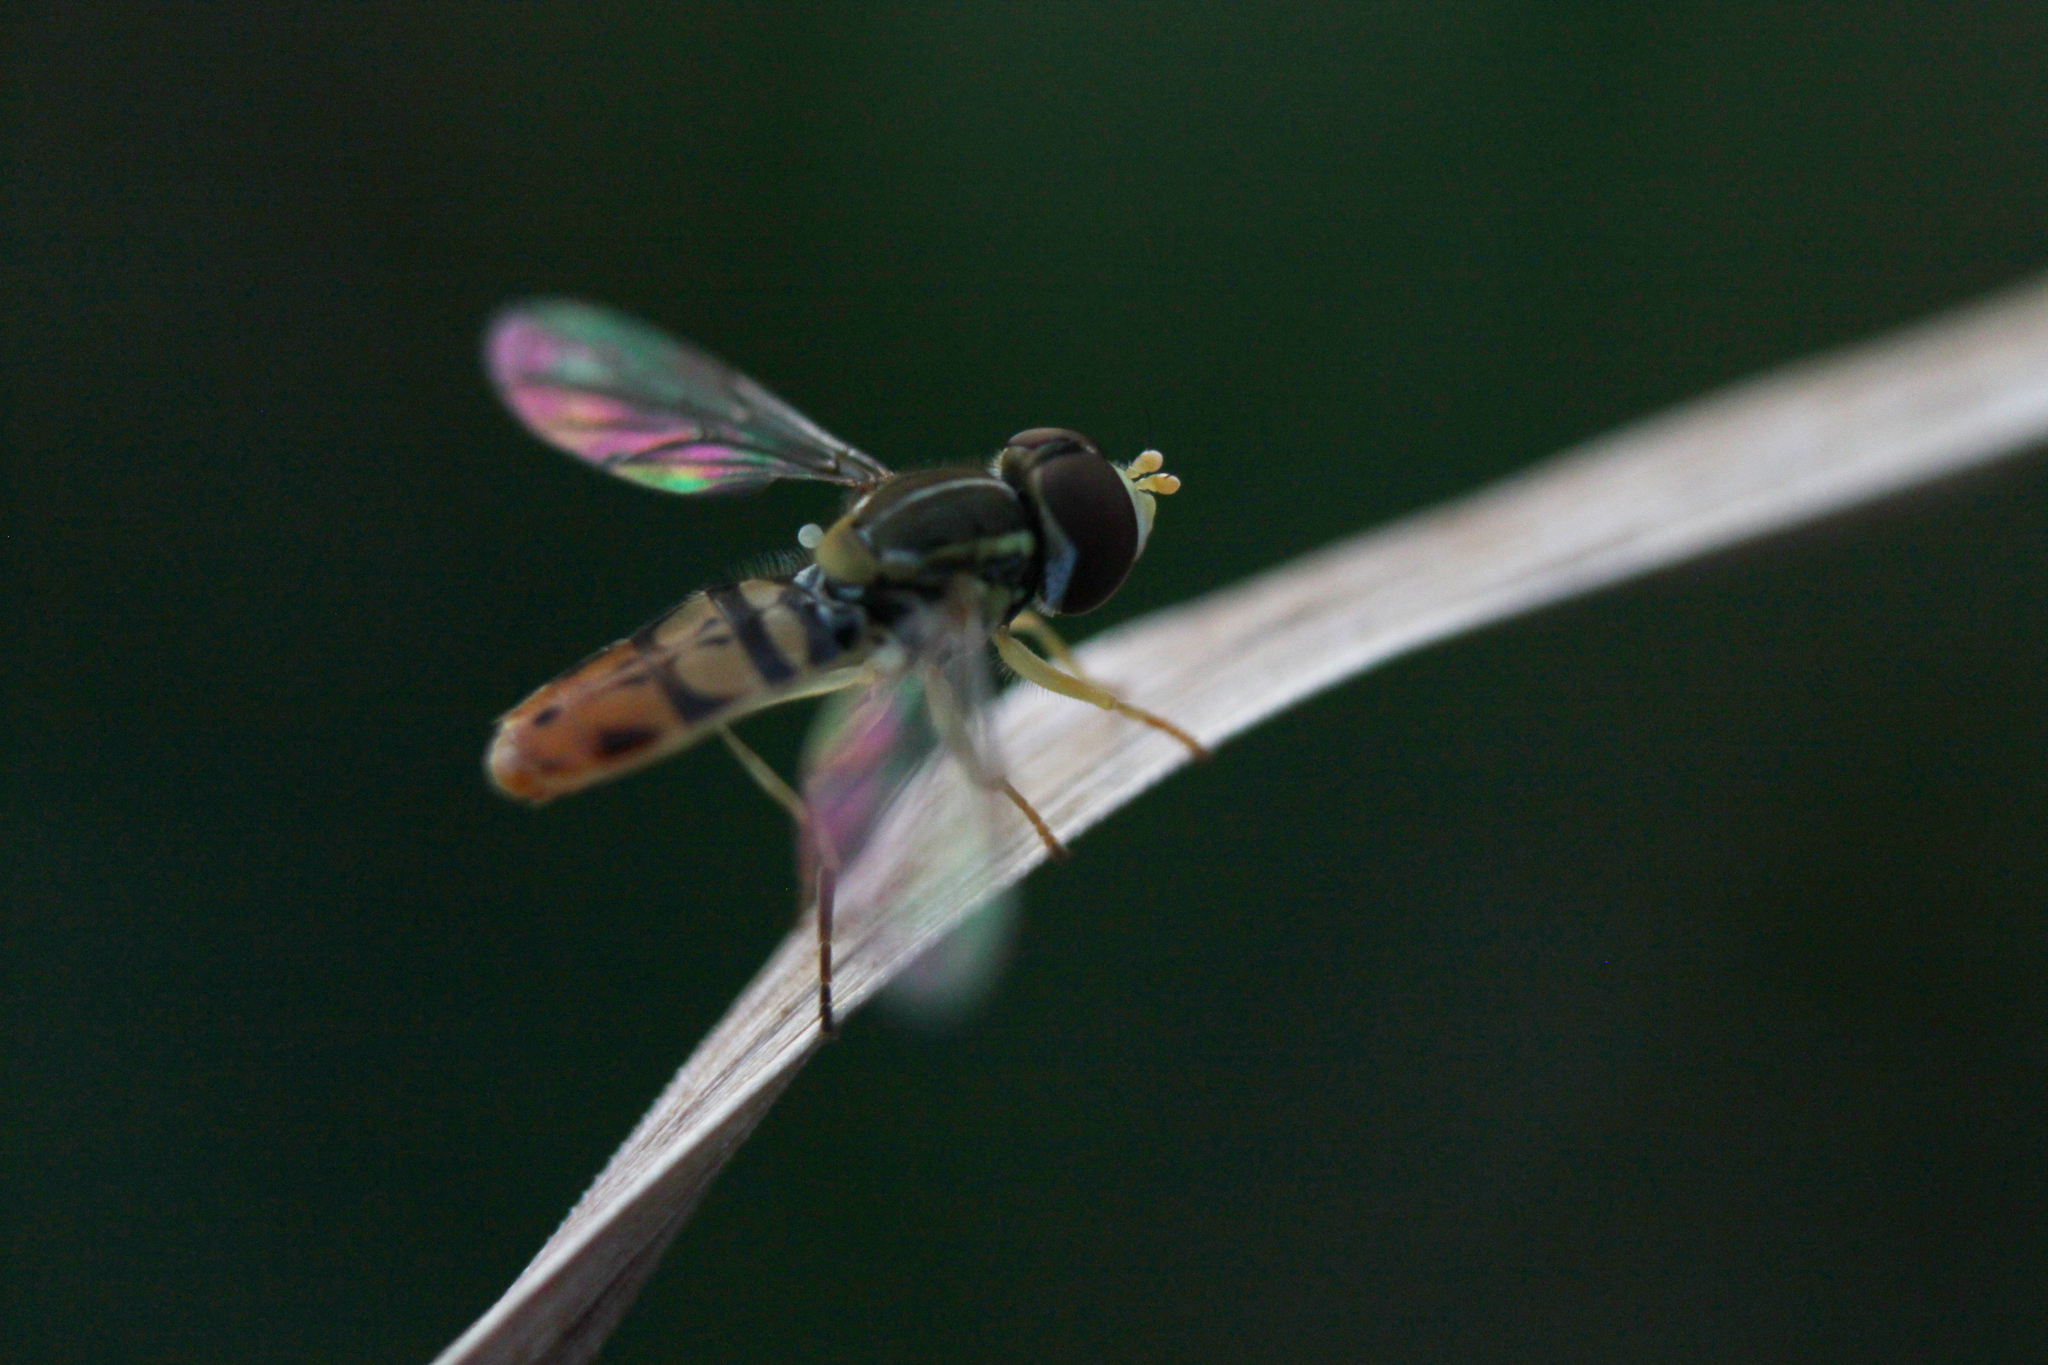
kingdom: Animalia
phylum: Arthropoda
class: Insecta
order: Diptera
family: Syrphidae
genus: Toxomerus
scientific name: Toxomerus marginatus
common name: Syrphid fly
